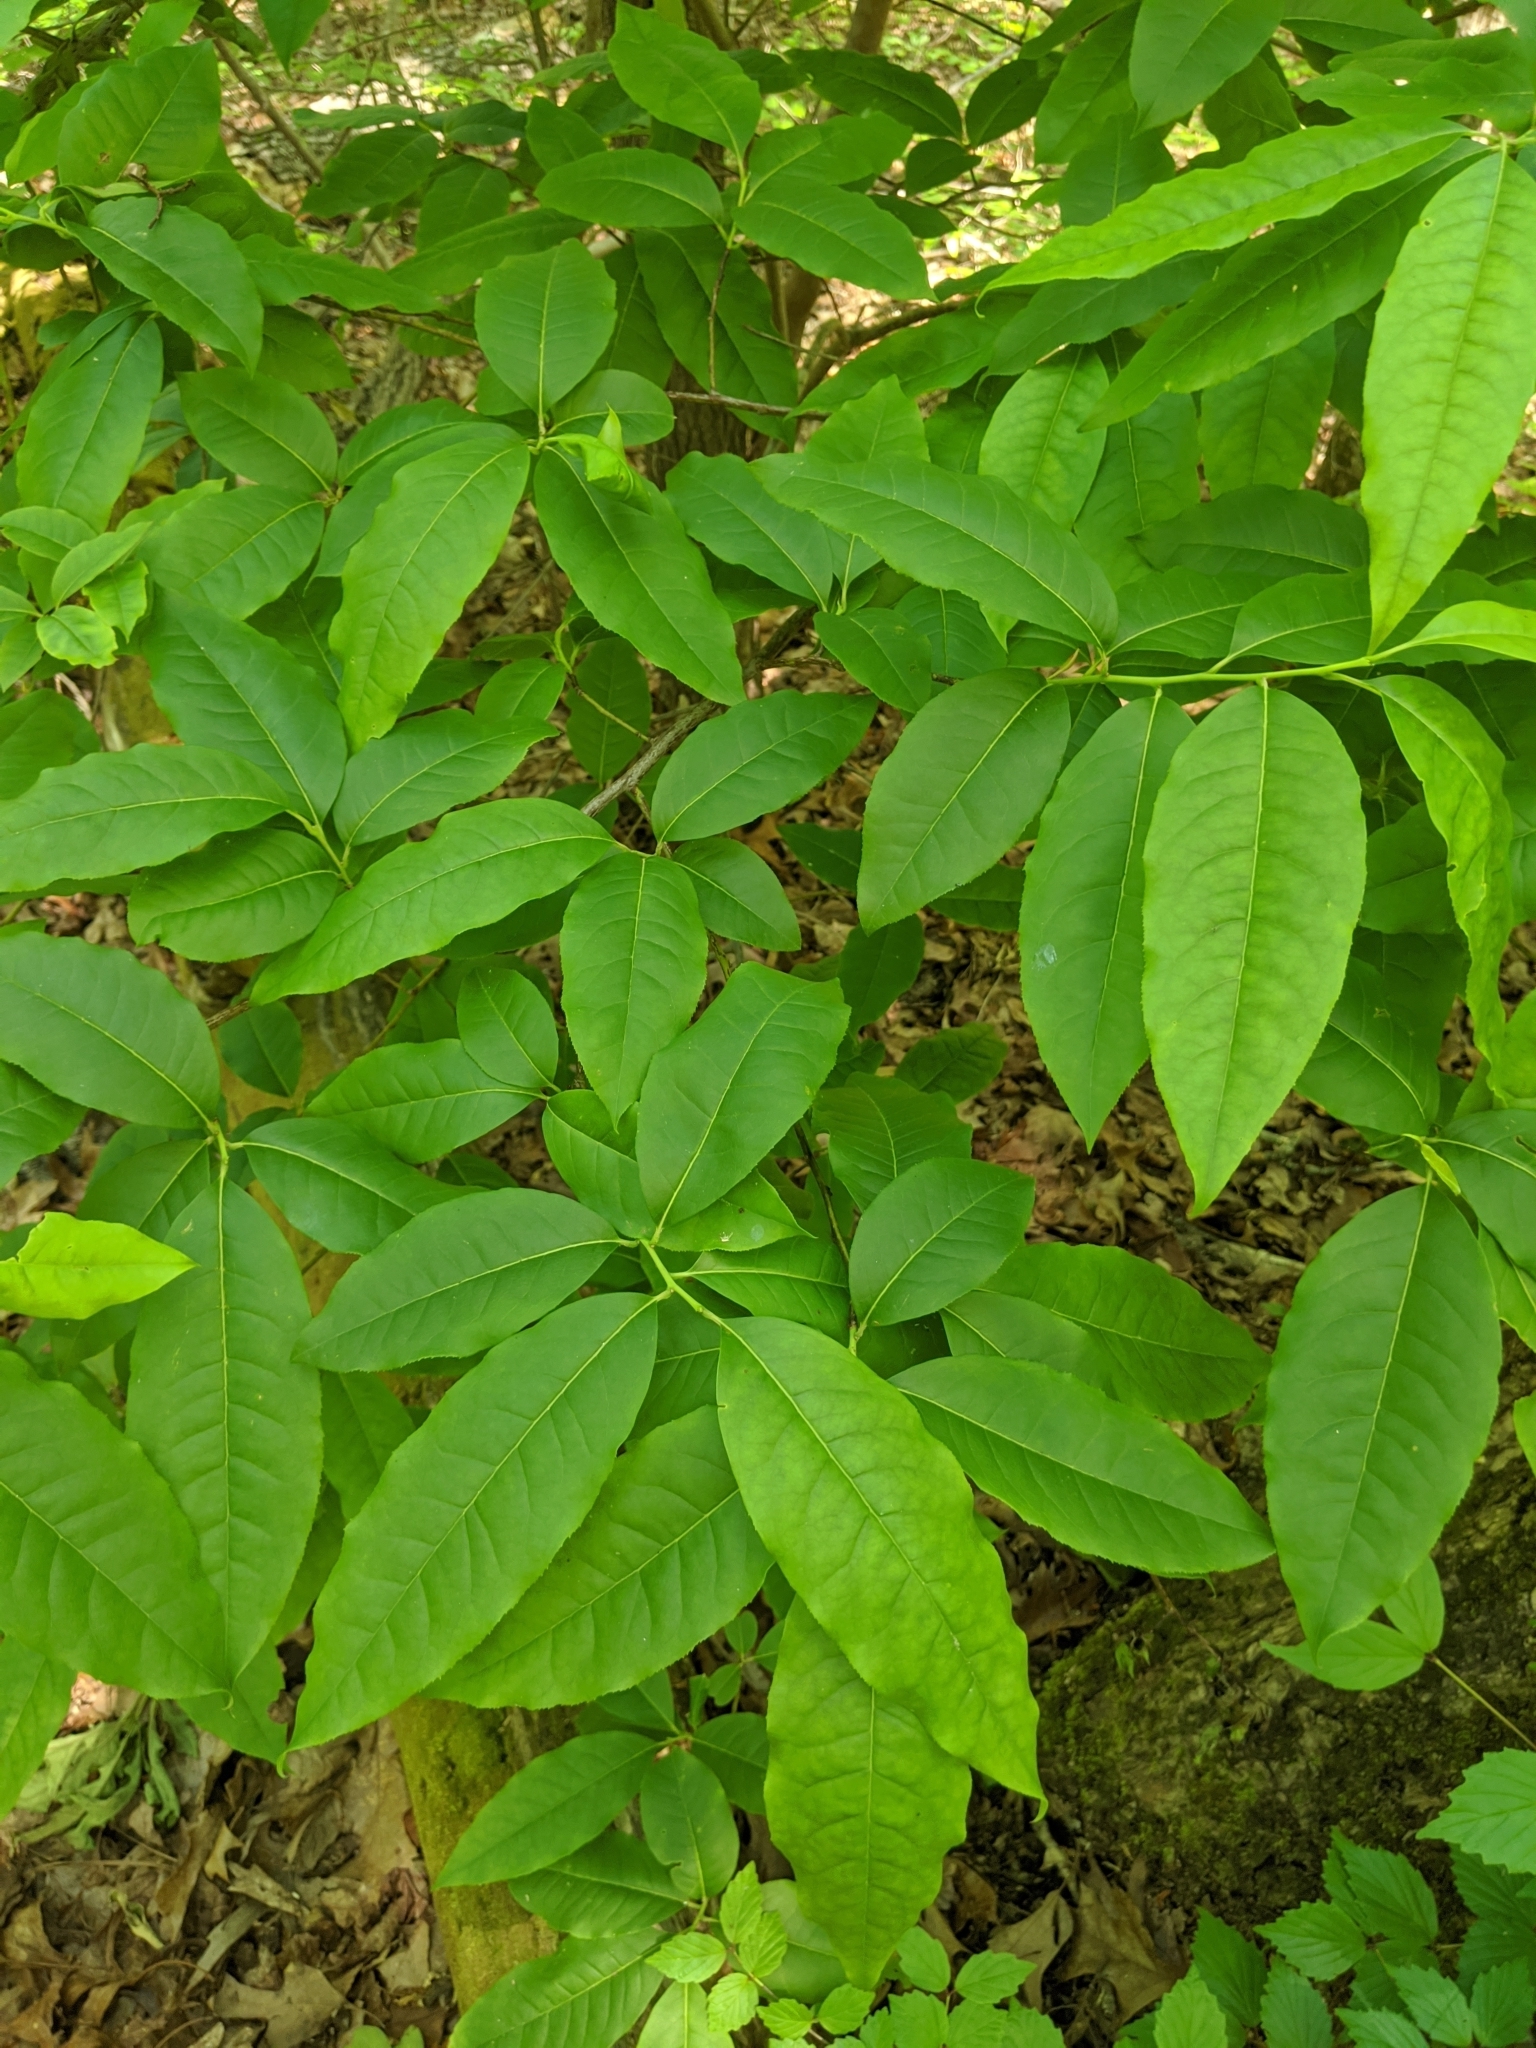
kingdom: Plantae
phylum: Tracheophyta
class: Magnoliopsida
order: Ericales
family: Ericaceae
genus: Oxydendrum
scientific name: Oxydendrum arboreum
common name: Sourwood
